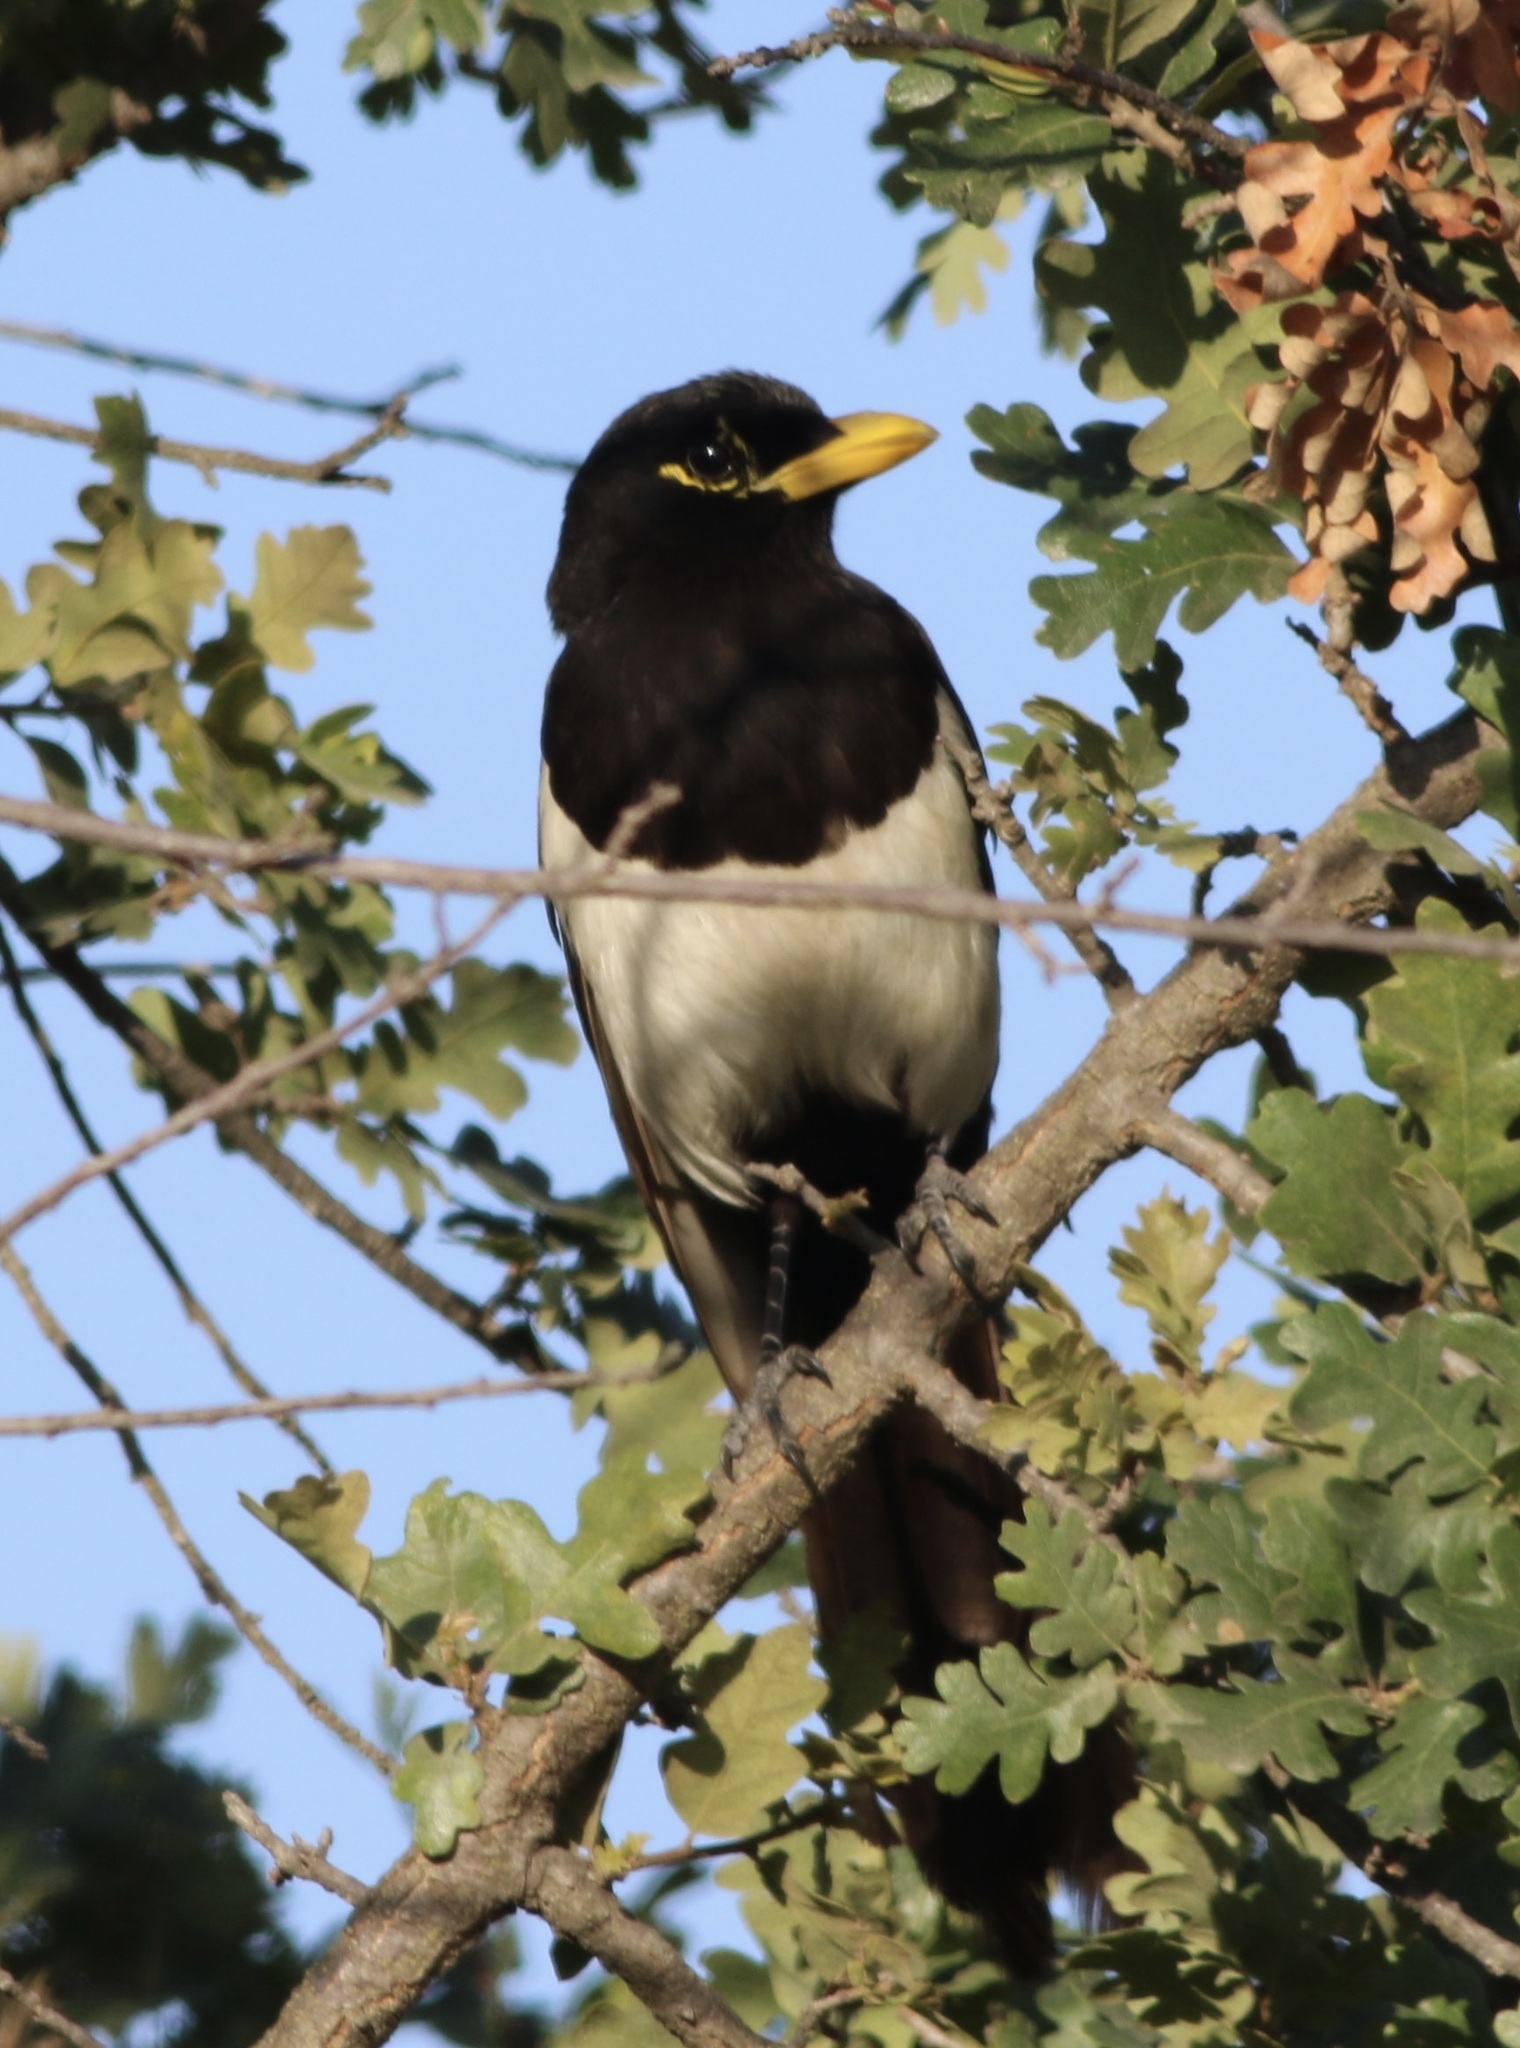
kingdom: Animalia
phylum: Chordata
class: Aves
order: Passeriformes
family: Corvidae
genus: Pica
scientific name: Pica nuttalli
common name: Yellow-billed magpie
